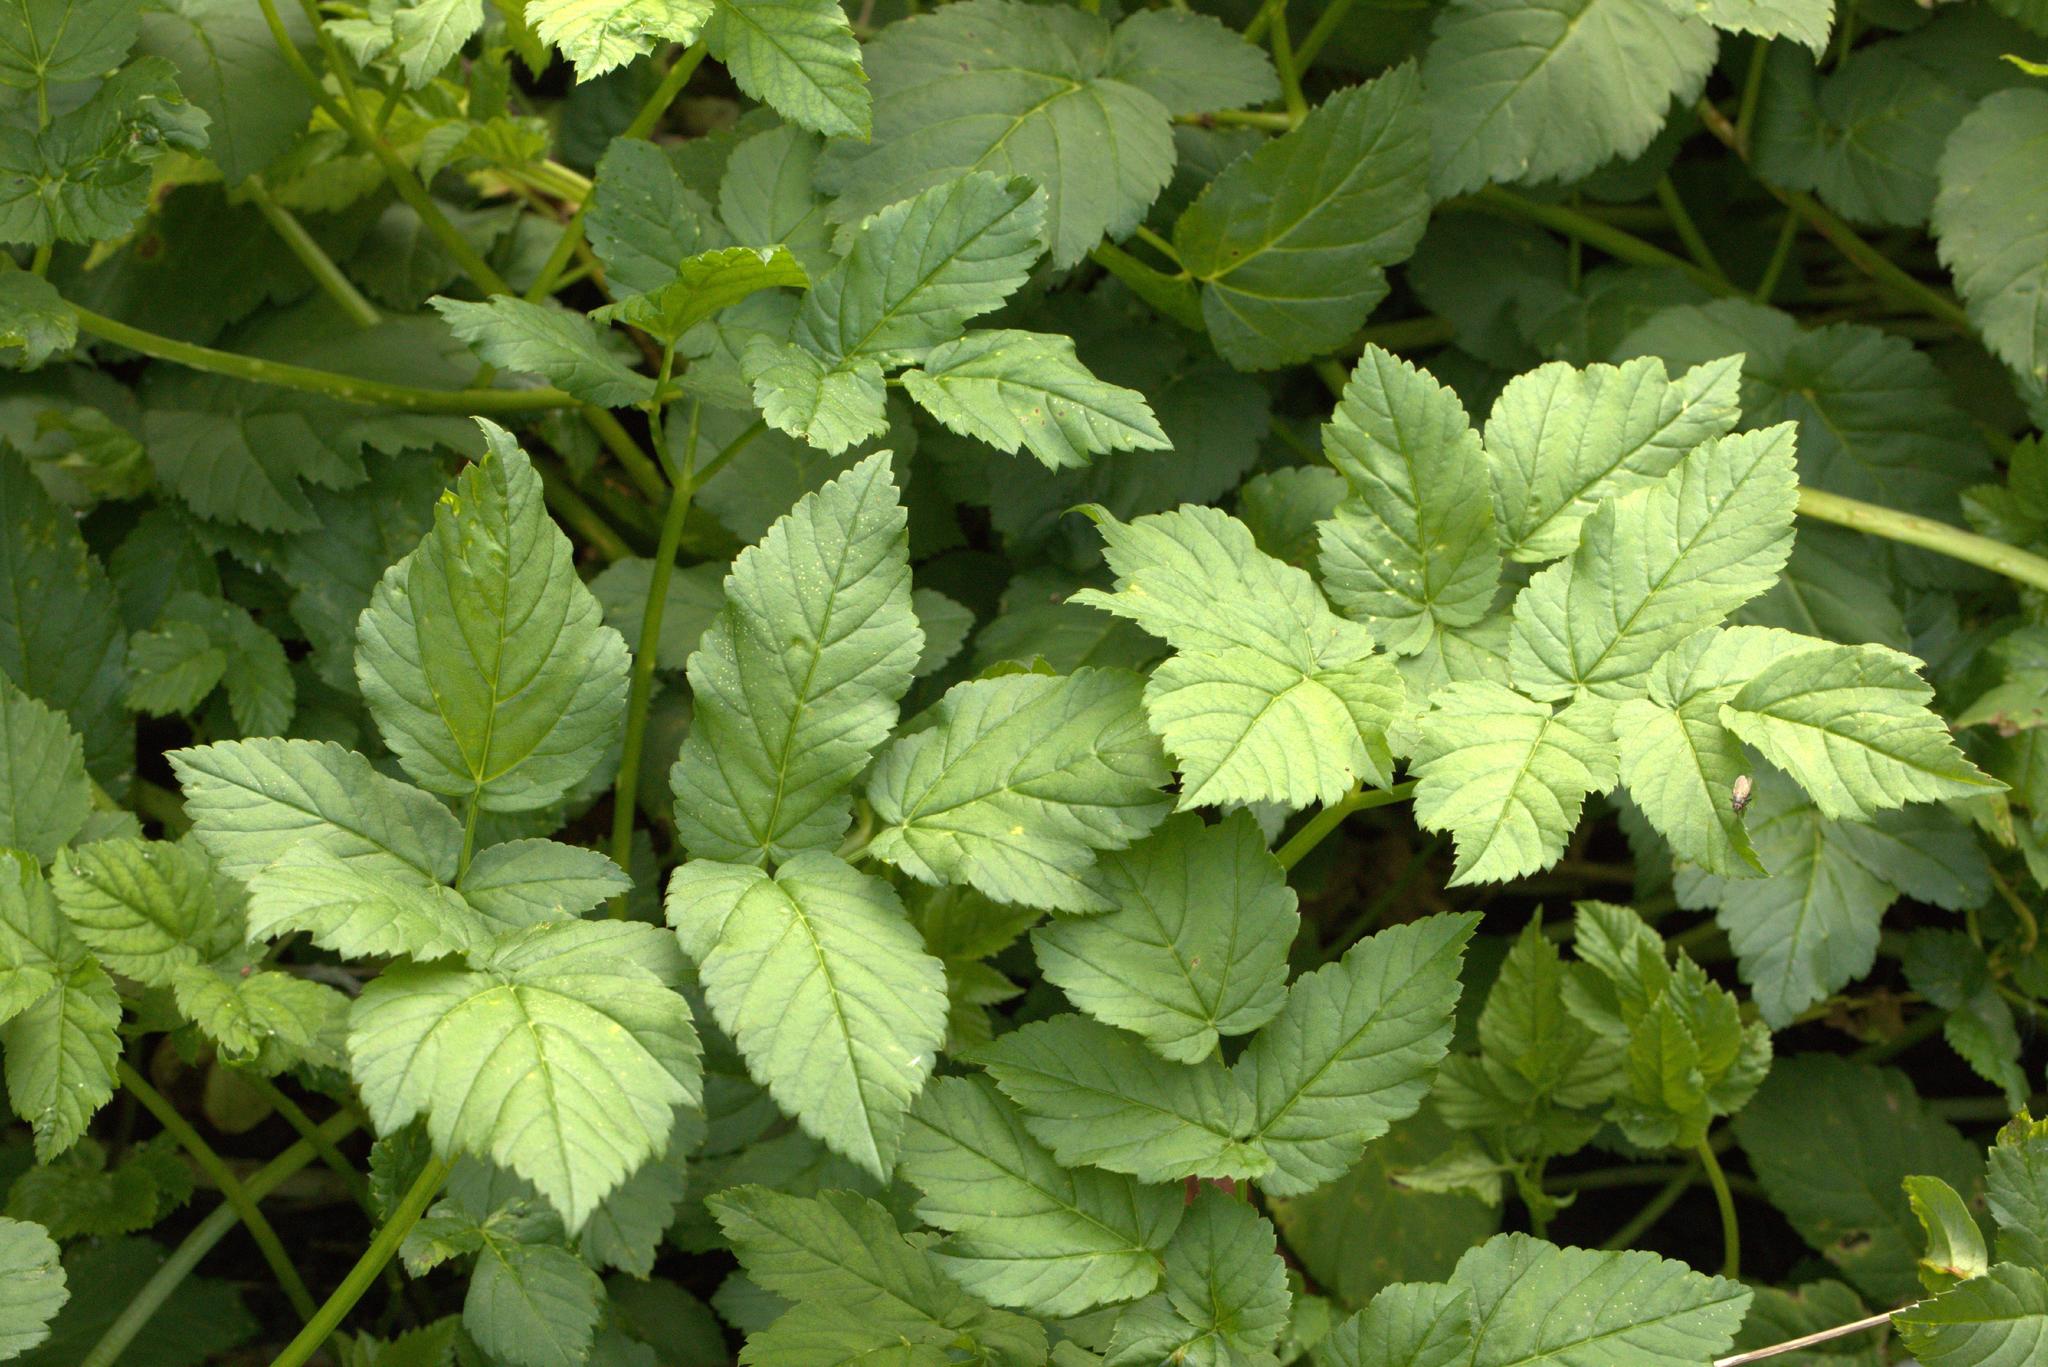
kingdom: Plantae
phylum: Tracheophyta
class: Magnoliopsida
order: Apiales
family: Apiaceae
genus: Aegopodium
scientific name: Aegopodium podagraria
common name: Ground-elder
